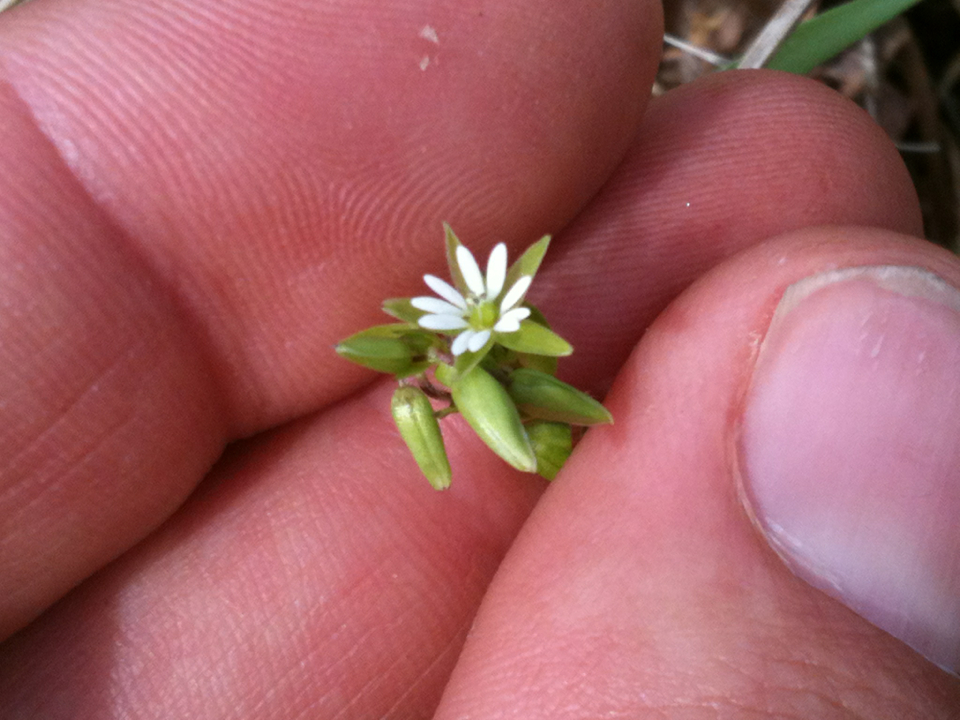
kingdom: Plantae
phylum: Tracheophyta
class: Magnoliopsida
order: Caryophyllales
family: Caryophyllaceae
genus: Stellaria
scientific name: Stellaria media
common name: Common chickweed
